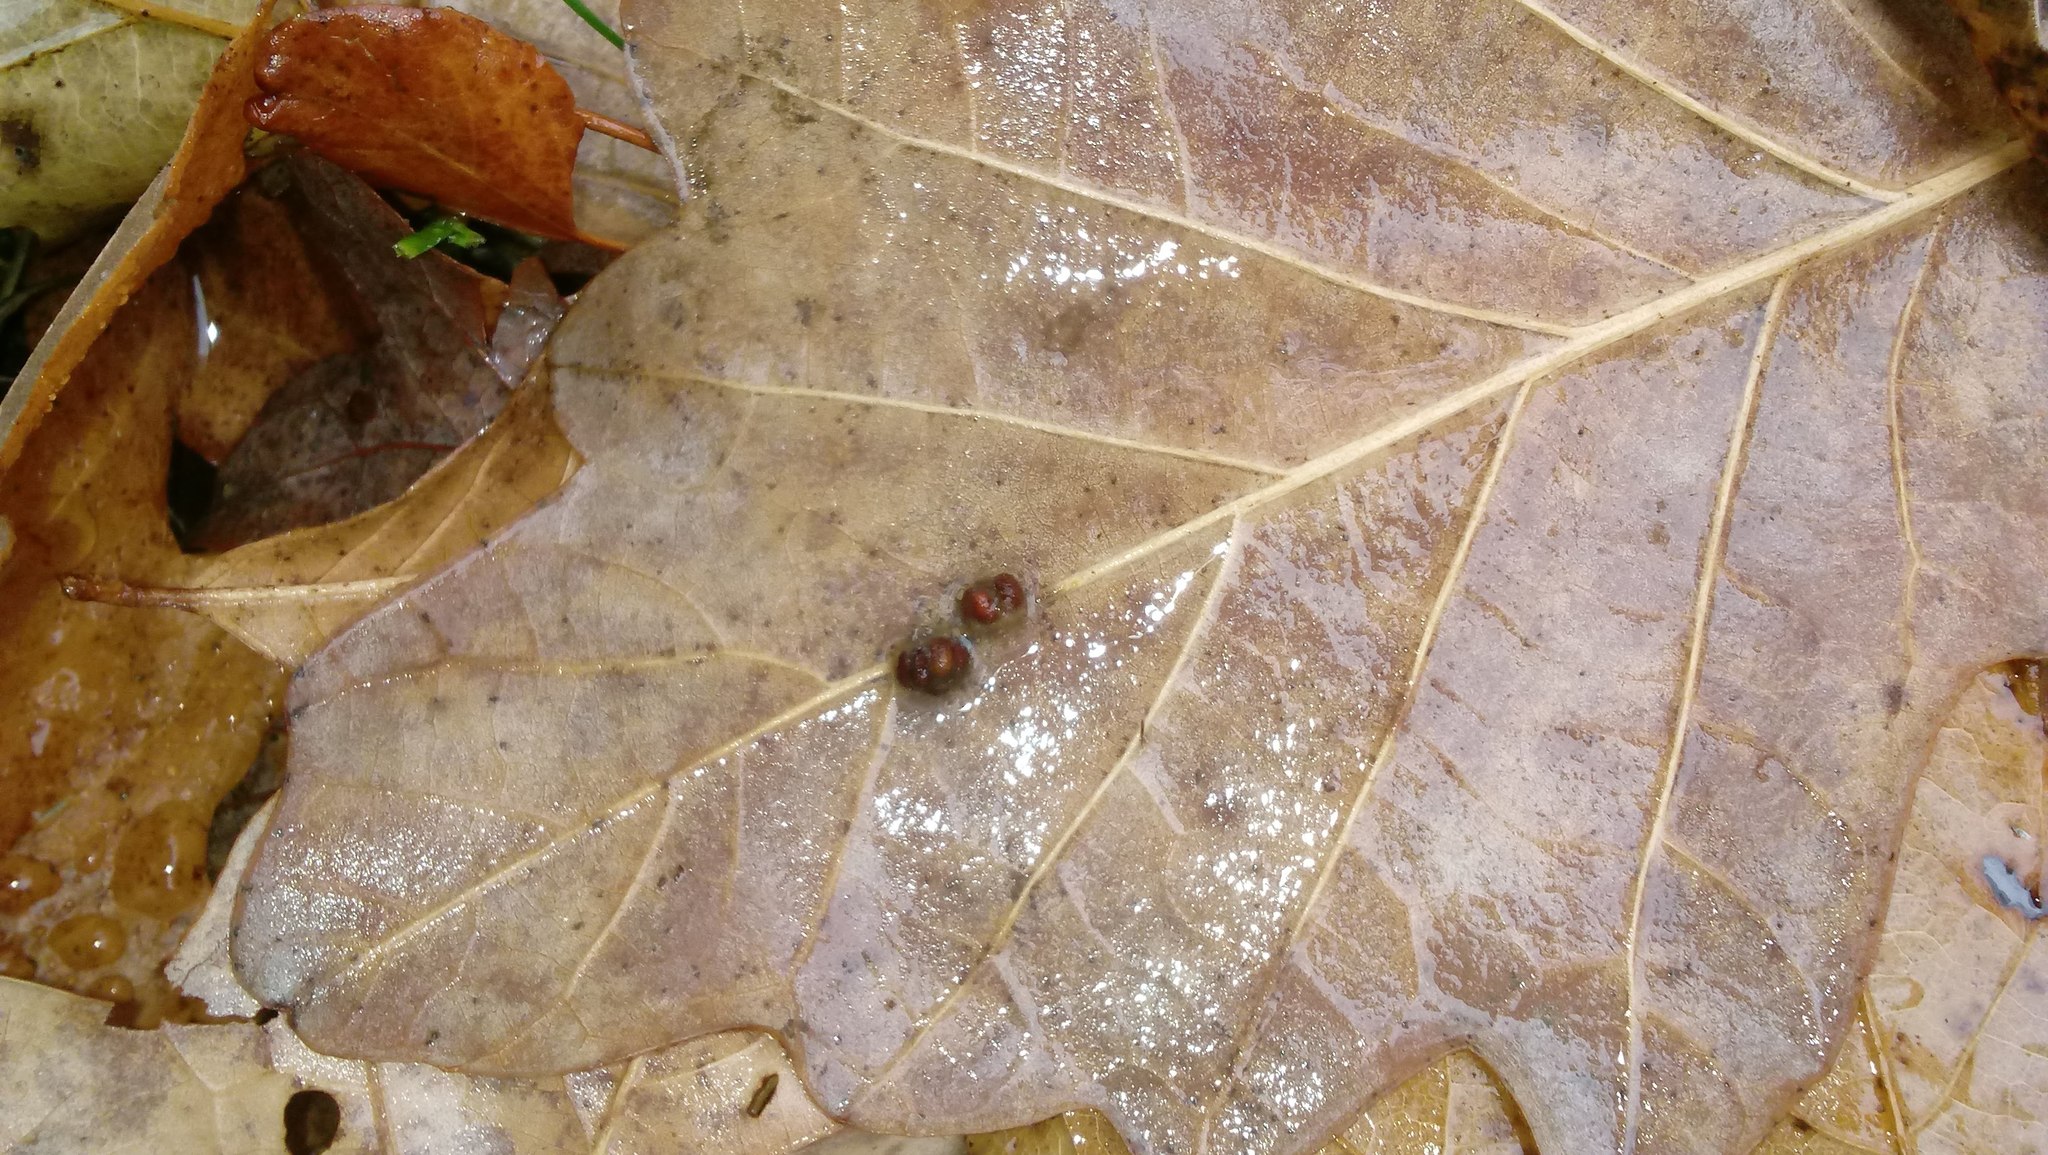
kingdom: Animalia
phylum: Arthropoda
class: Insecta
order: Hymenoptera
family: Cynipidae
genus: Andricus
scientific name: Andricus Druon ignotum
